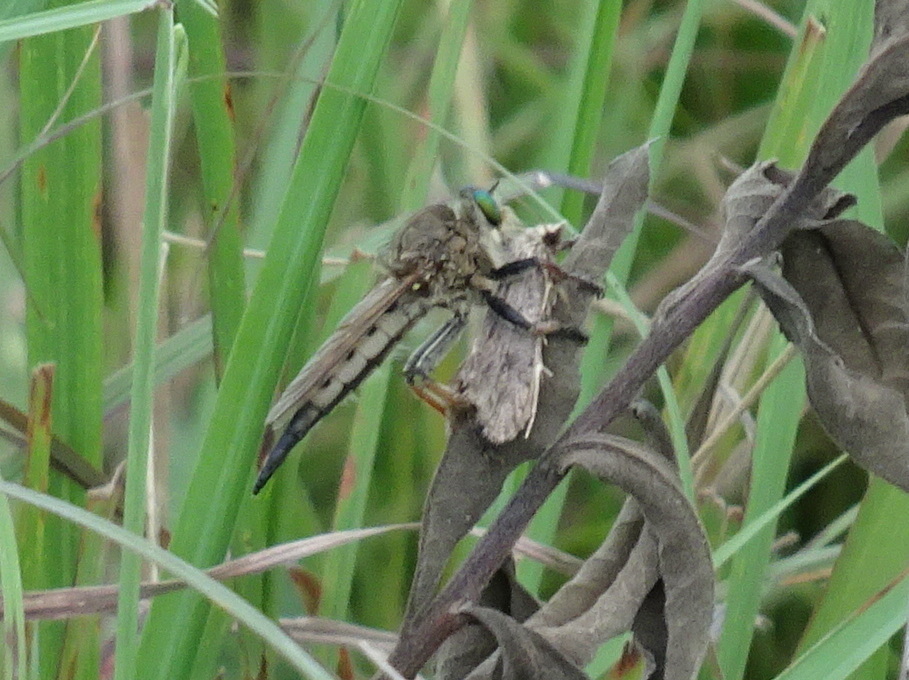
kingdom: Animalia
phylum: Arthropoda
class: Insecta
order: Diptera
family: Asilidae
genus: Promachus
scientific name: Promachus vertebratus
